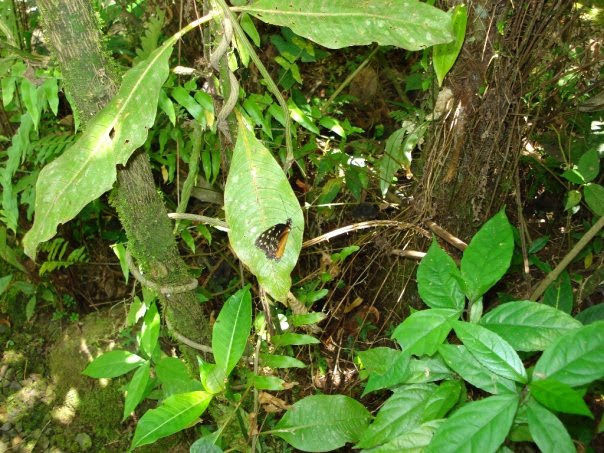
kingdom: Animalia
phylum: Arthropoda
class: Insecta
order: Lepidoptera
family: Nymphalidae
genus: Tithorea
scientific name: Tithorea tarricina
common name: Cream-spotted tigerwing
